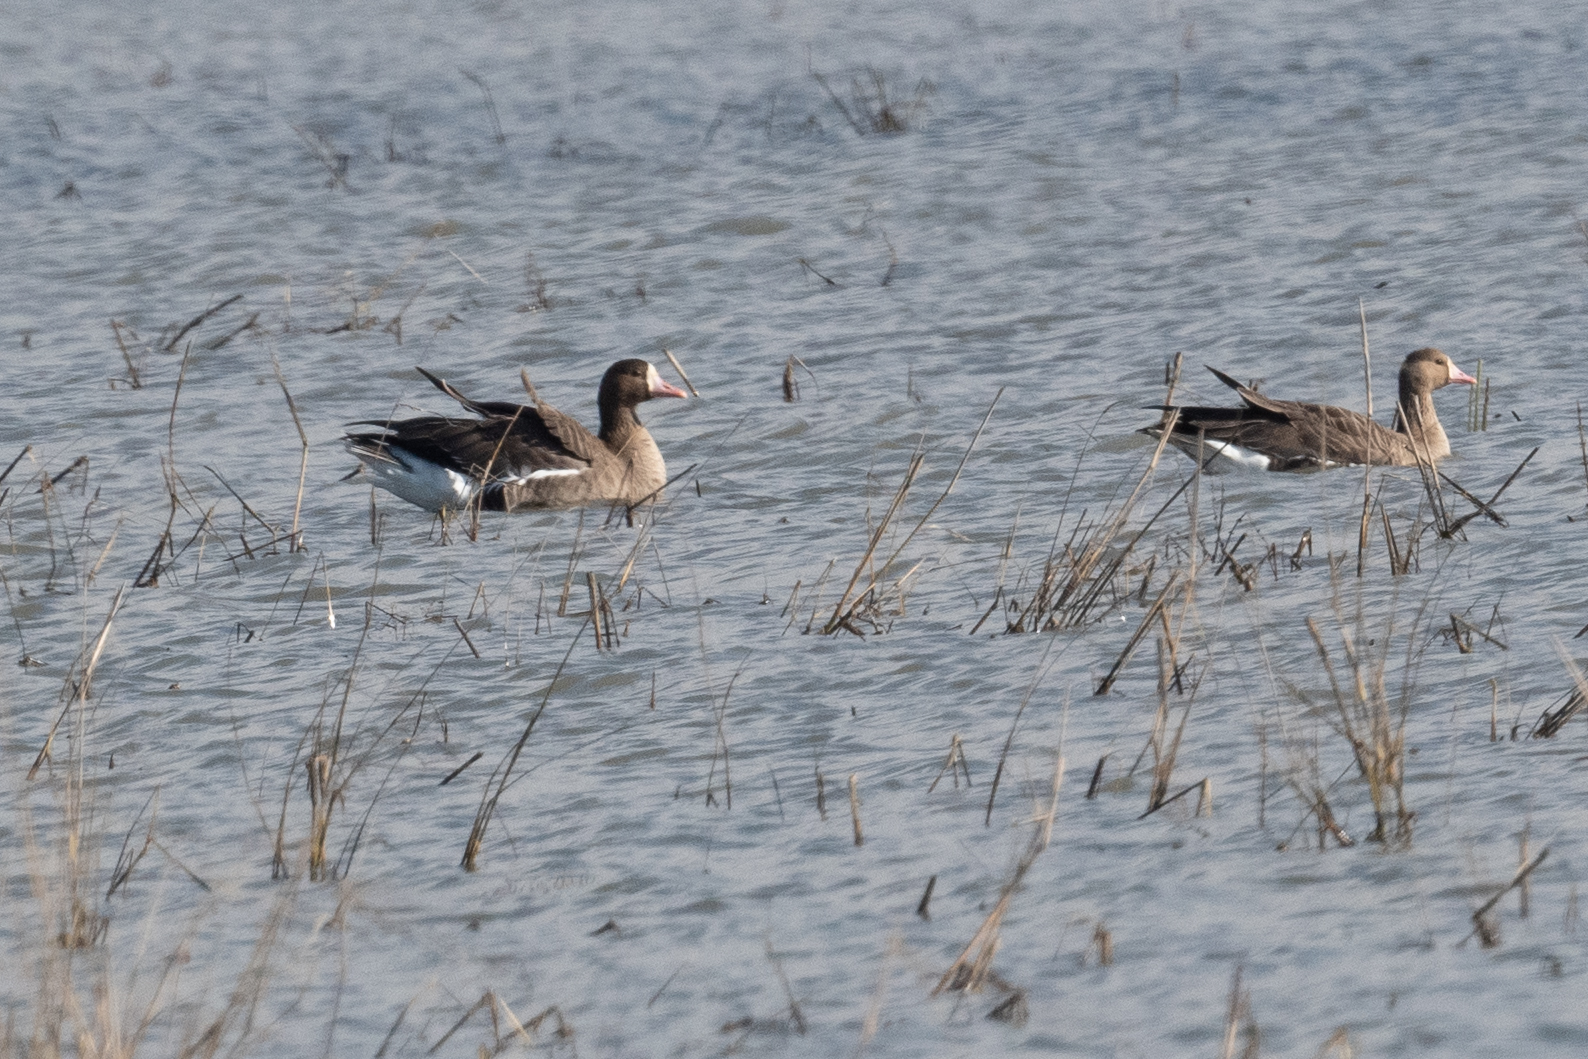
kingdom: Animalia
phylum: Chordata
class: Aves
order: Anseriformes
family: Anatidae
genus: Anser
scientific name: Anser albifrons
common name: Greater white-fronted goose
